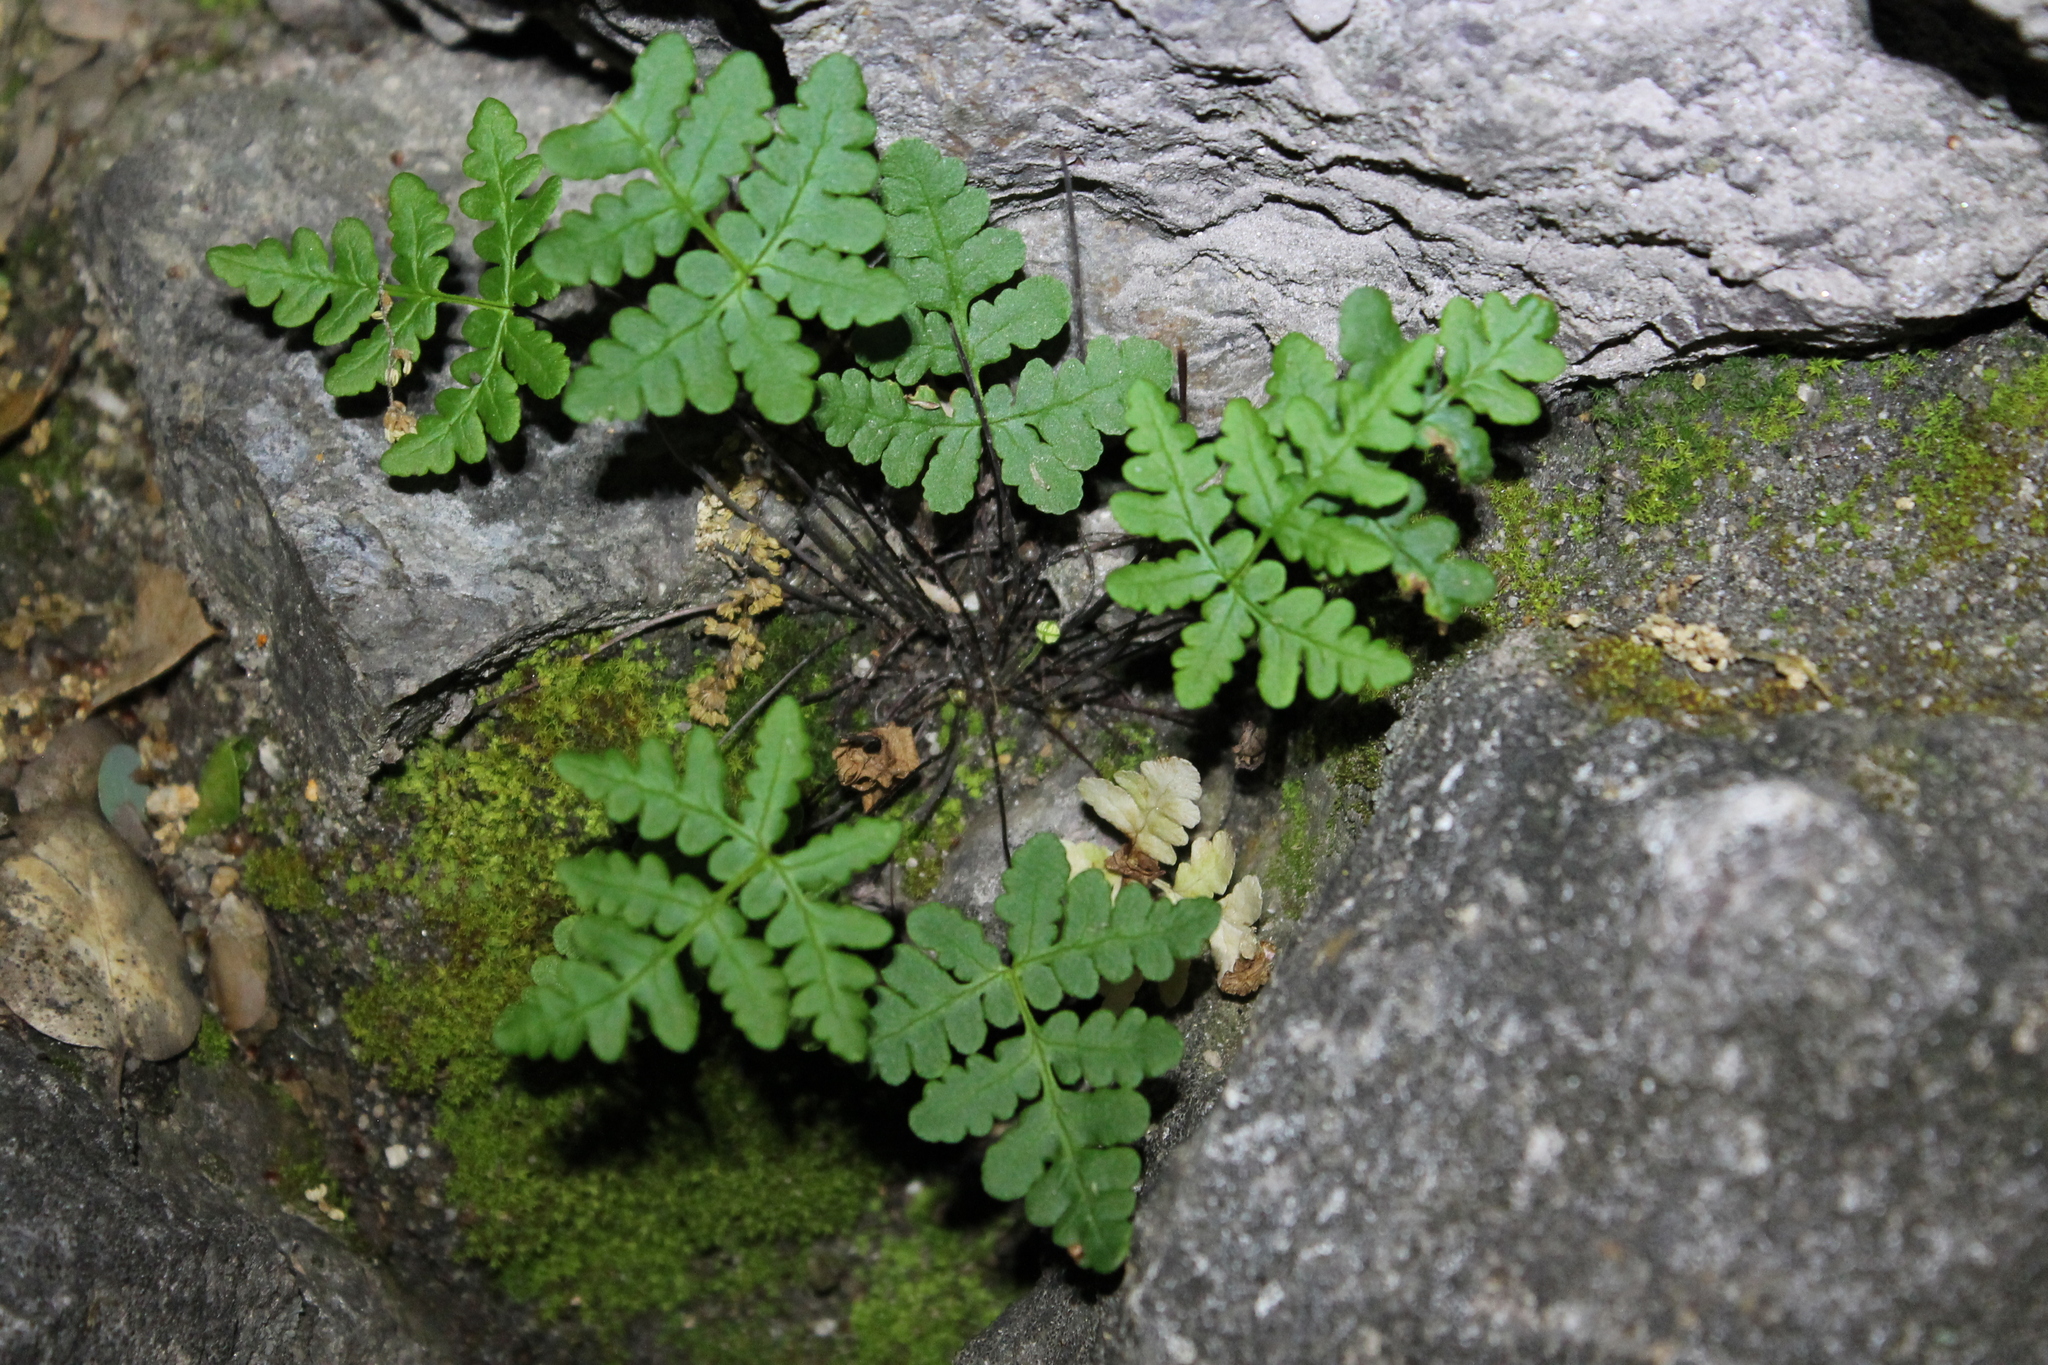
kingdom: Plantae
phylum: Tracheophyta
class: Polypodiopsida
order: Polypodiales
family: Pteridaceae
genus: Pentagramma
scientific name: Pentagramma triangularis
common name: Gold fern
